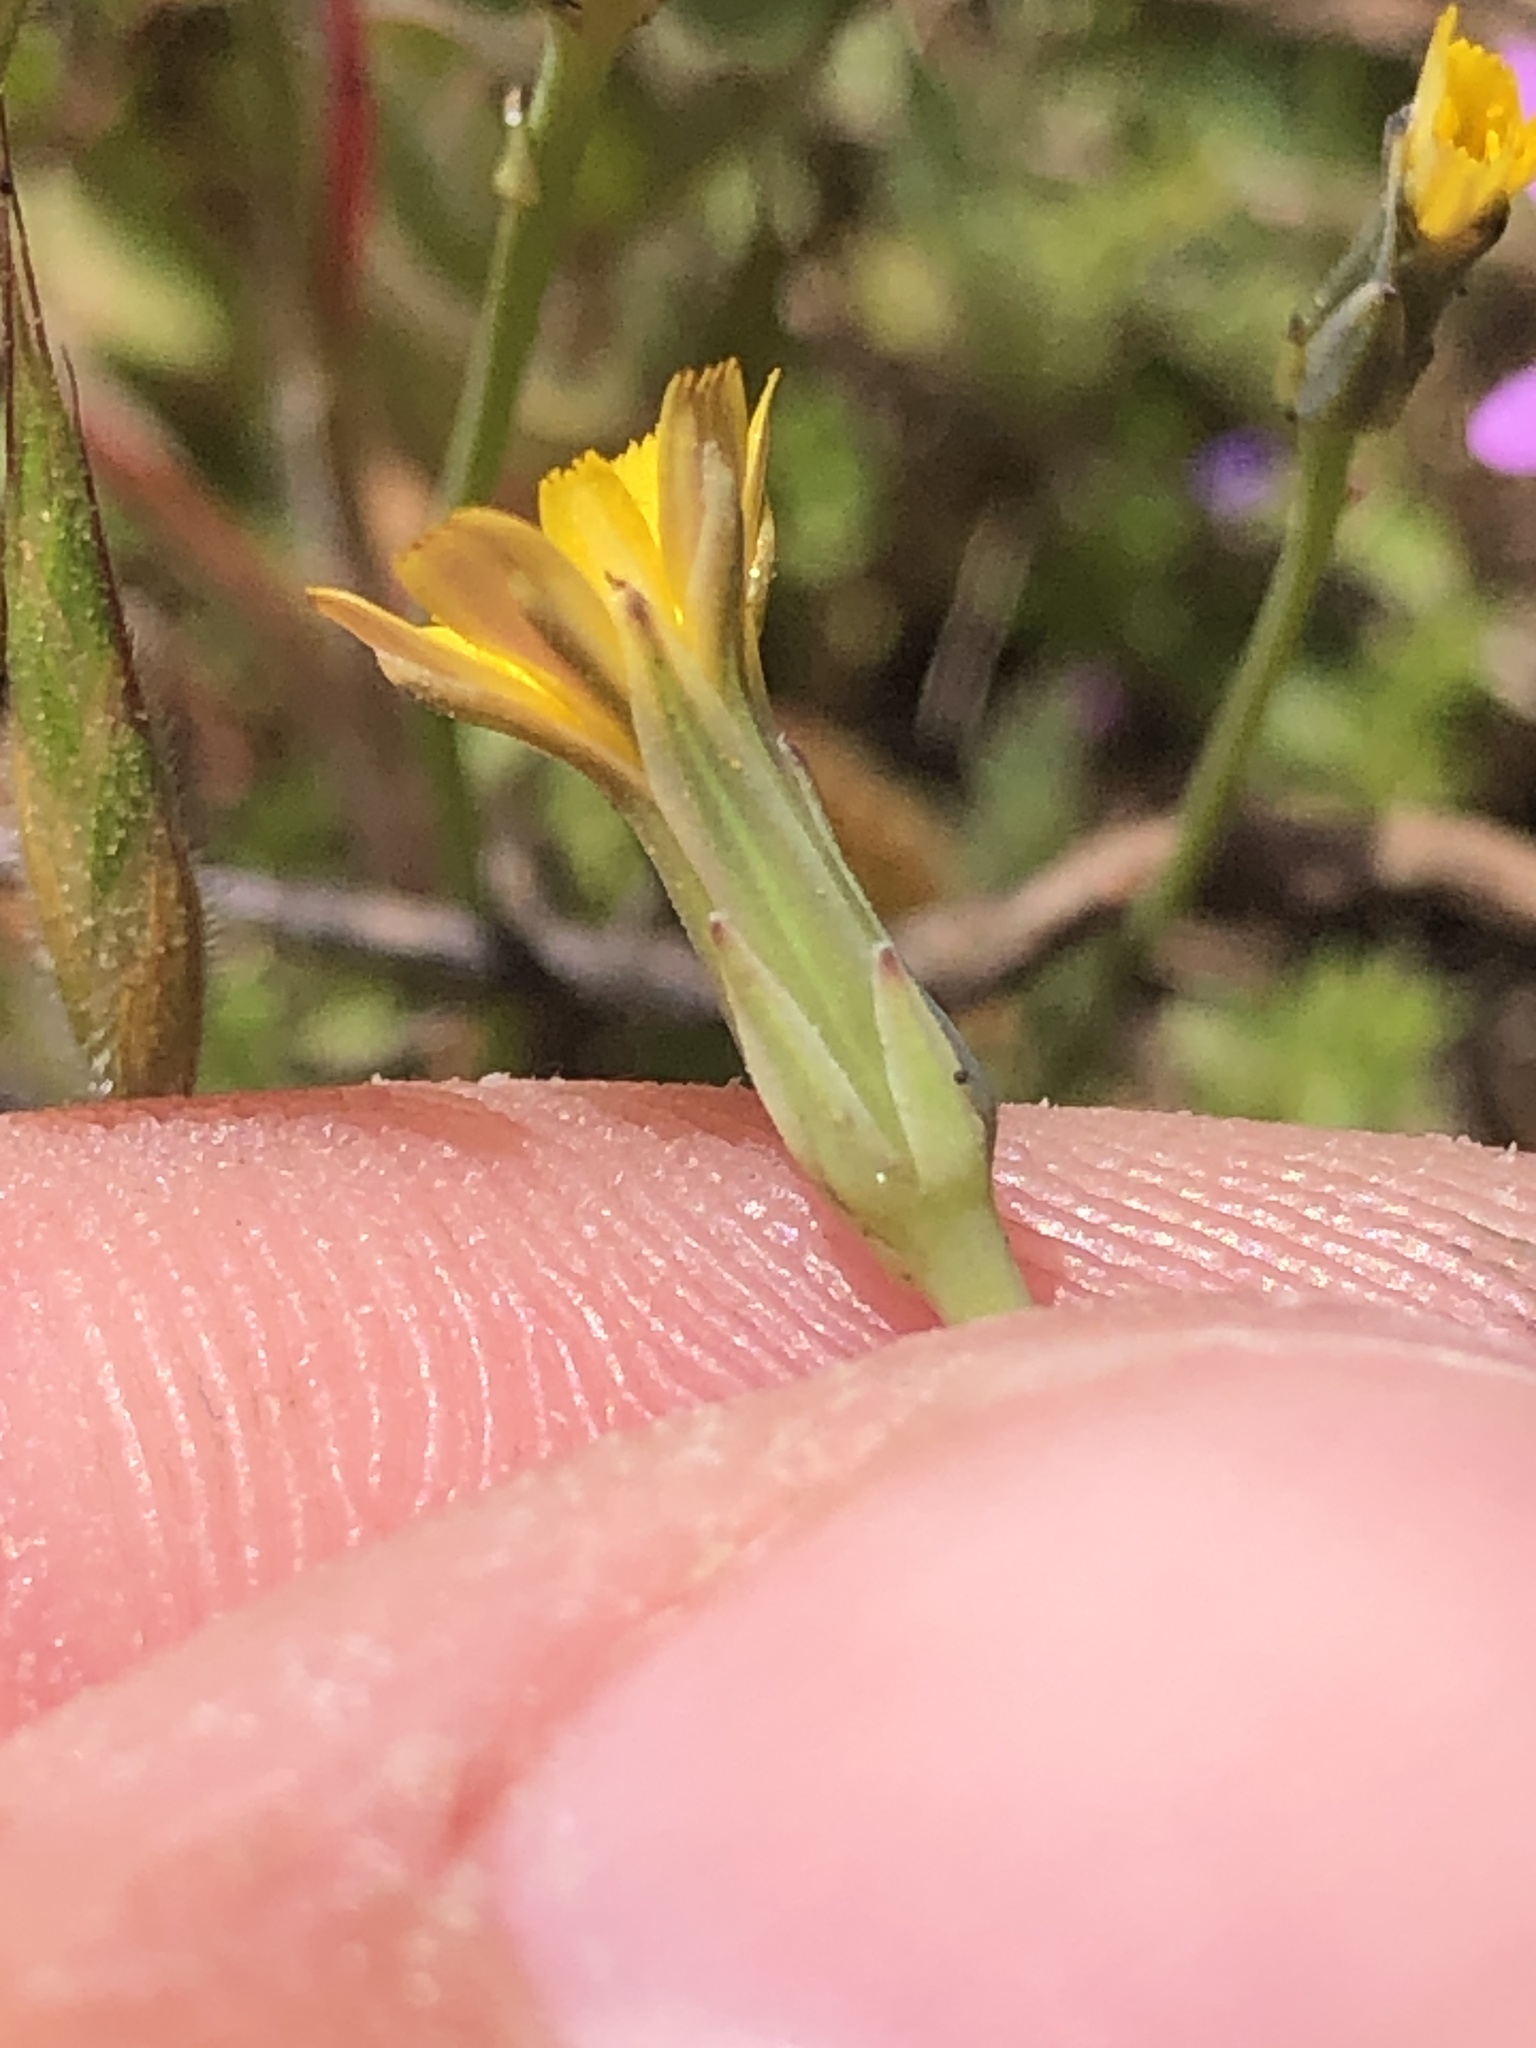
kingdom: Plantae
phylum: Tracheophyta
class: Magnoliopsida
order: Asterales
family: Asteraceae
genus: Hypochaeris
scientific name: Hypochaeris glabra
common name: Smooth catsear
